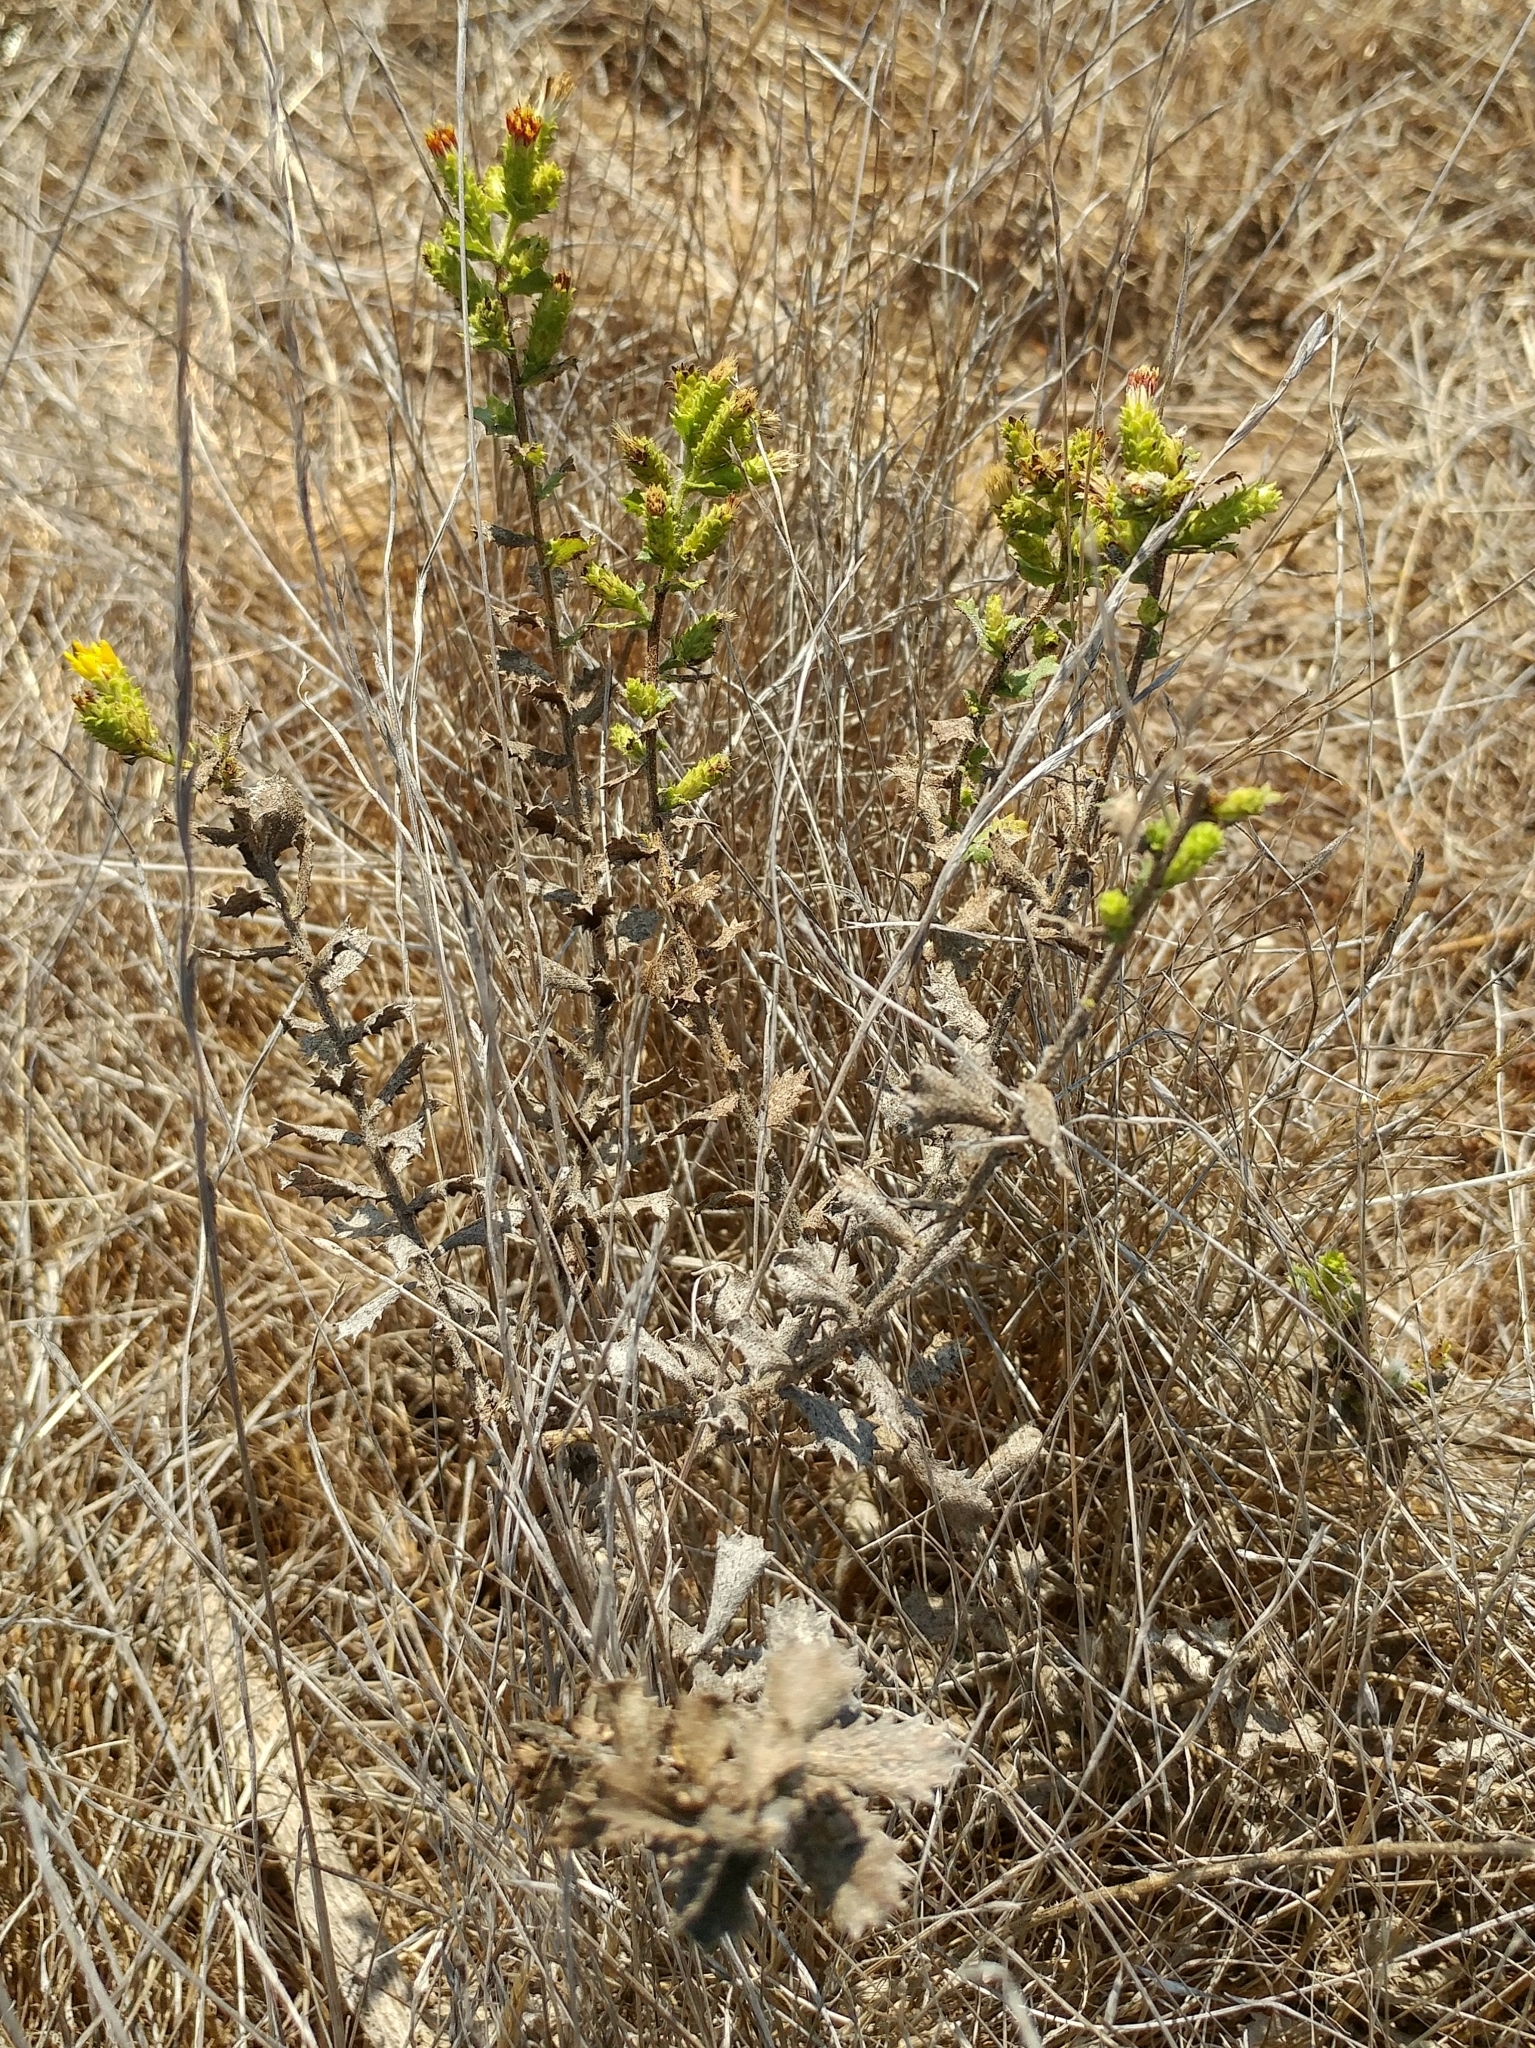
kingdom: Plantae
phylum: Tracheophyta
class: Magnoliopsida
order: Asterales
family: Asteraceae
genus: Hazardia
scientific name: Hazardia squarrosa
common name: Saw-tooth goldenbush
